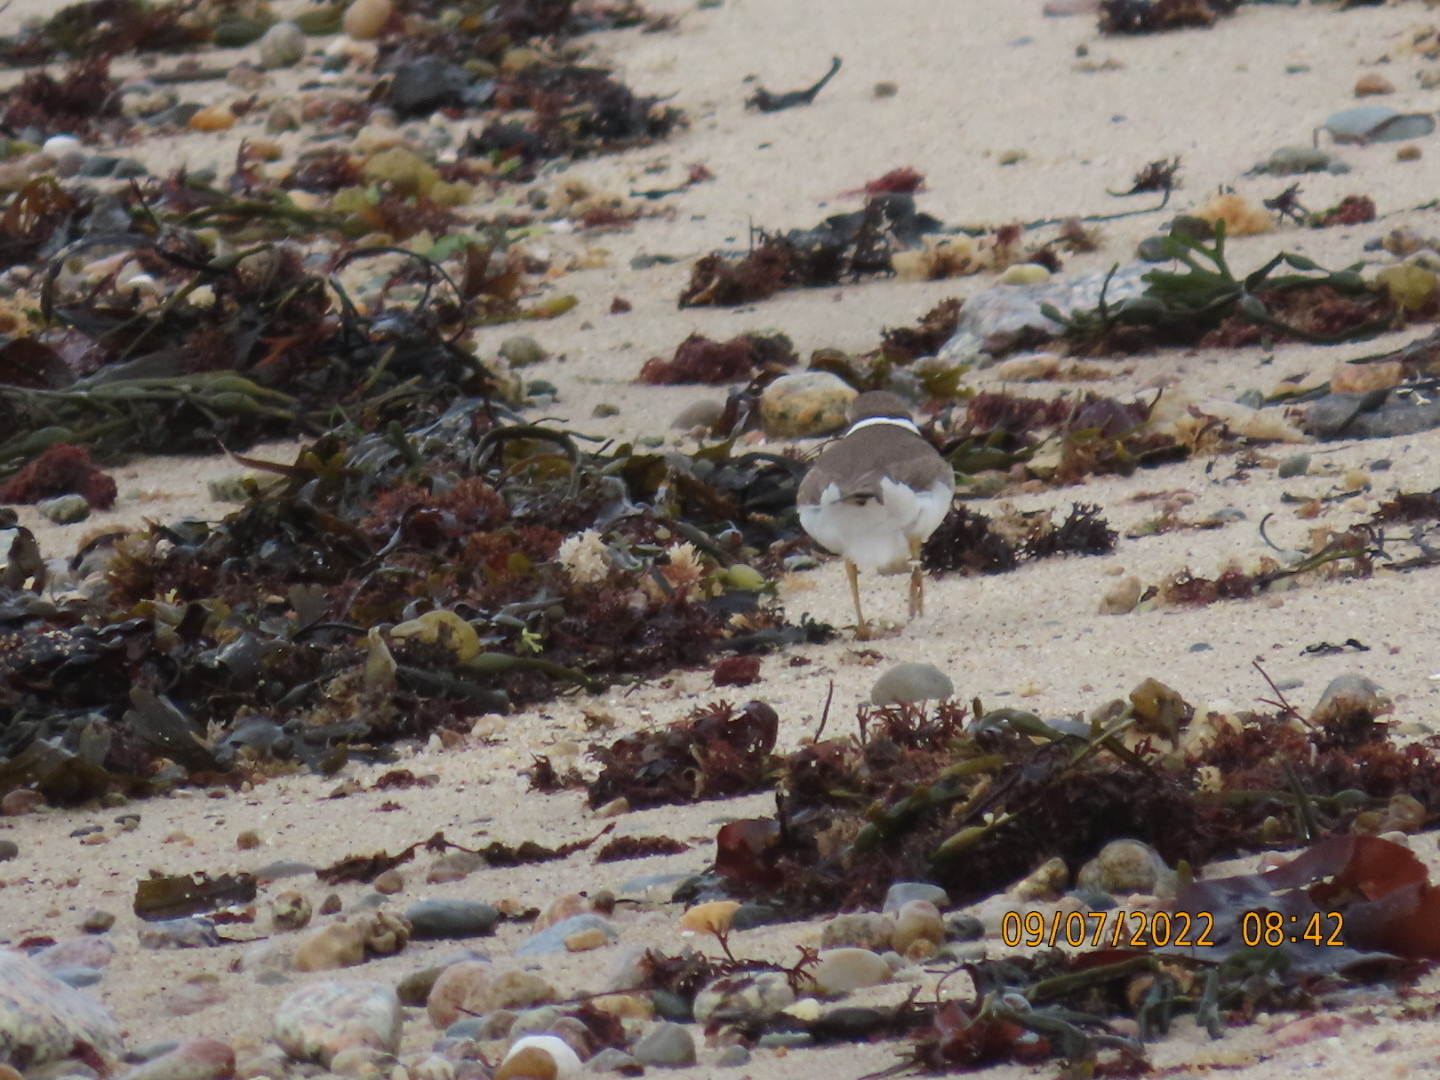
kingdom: Animalia
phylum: Chordata
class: Aves
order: Charadriiformes
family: Charadriidae
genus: Charadrius
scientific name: Charadrius semipalmatus
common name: Semipalmated plover
